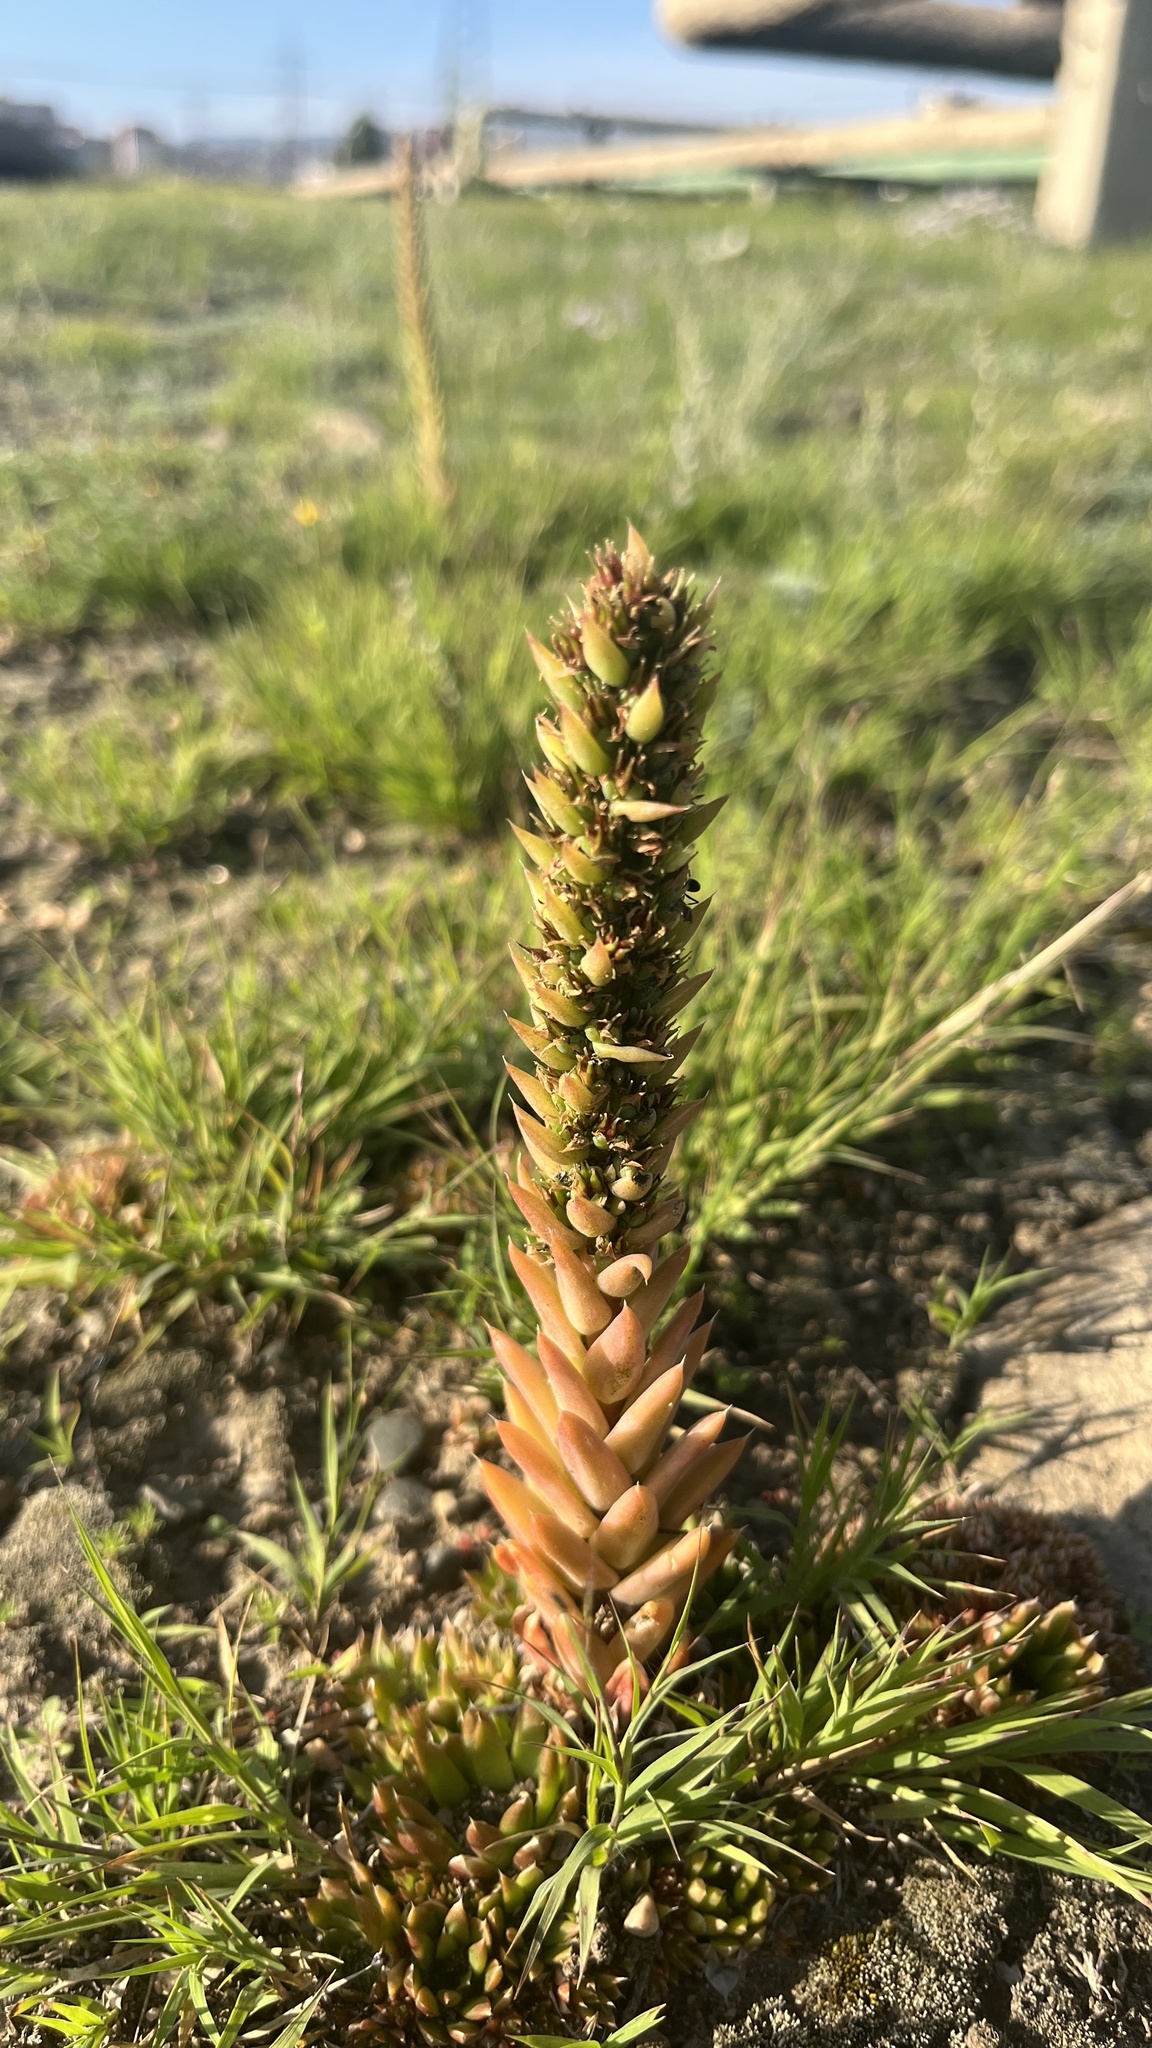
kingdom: Plantae
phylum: Tracheophyta
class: Magnoliopsida
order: Saxifragales
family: Crassulaceae
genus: Orostachys
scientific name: Orostachys spinosa
